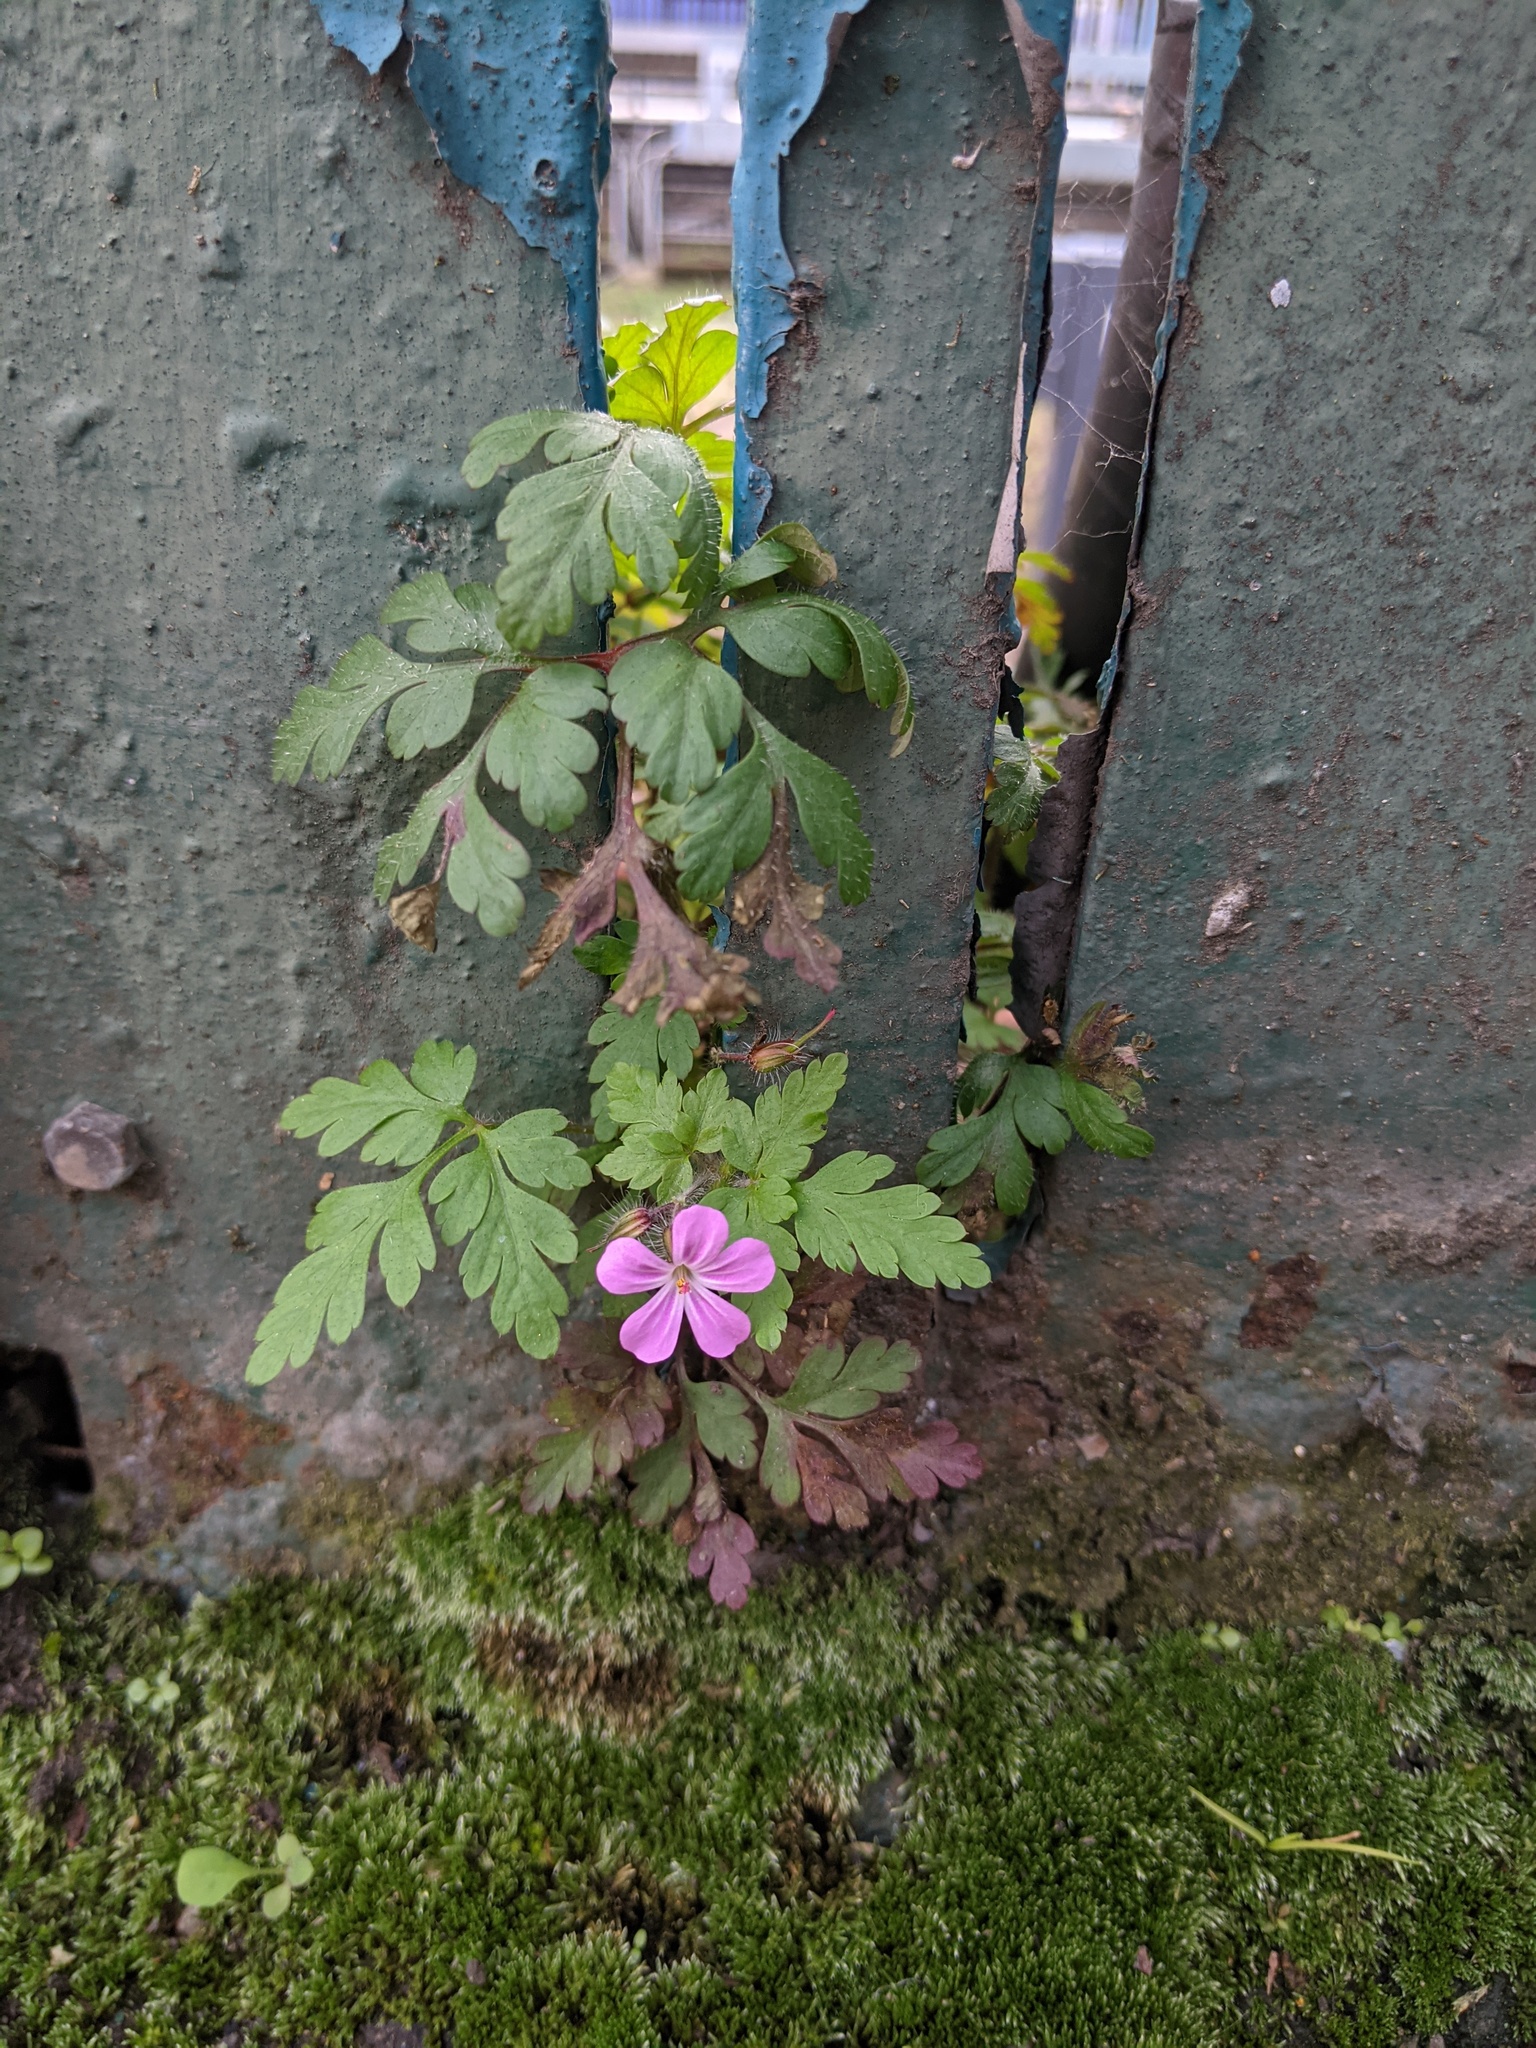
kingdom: Plantae
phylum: Tracheophyta
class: Magnoliopsida
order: Geraniales
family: Geraniaceae
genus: Geranium
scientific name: Geranium robertianum
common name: Herb-robert
